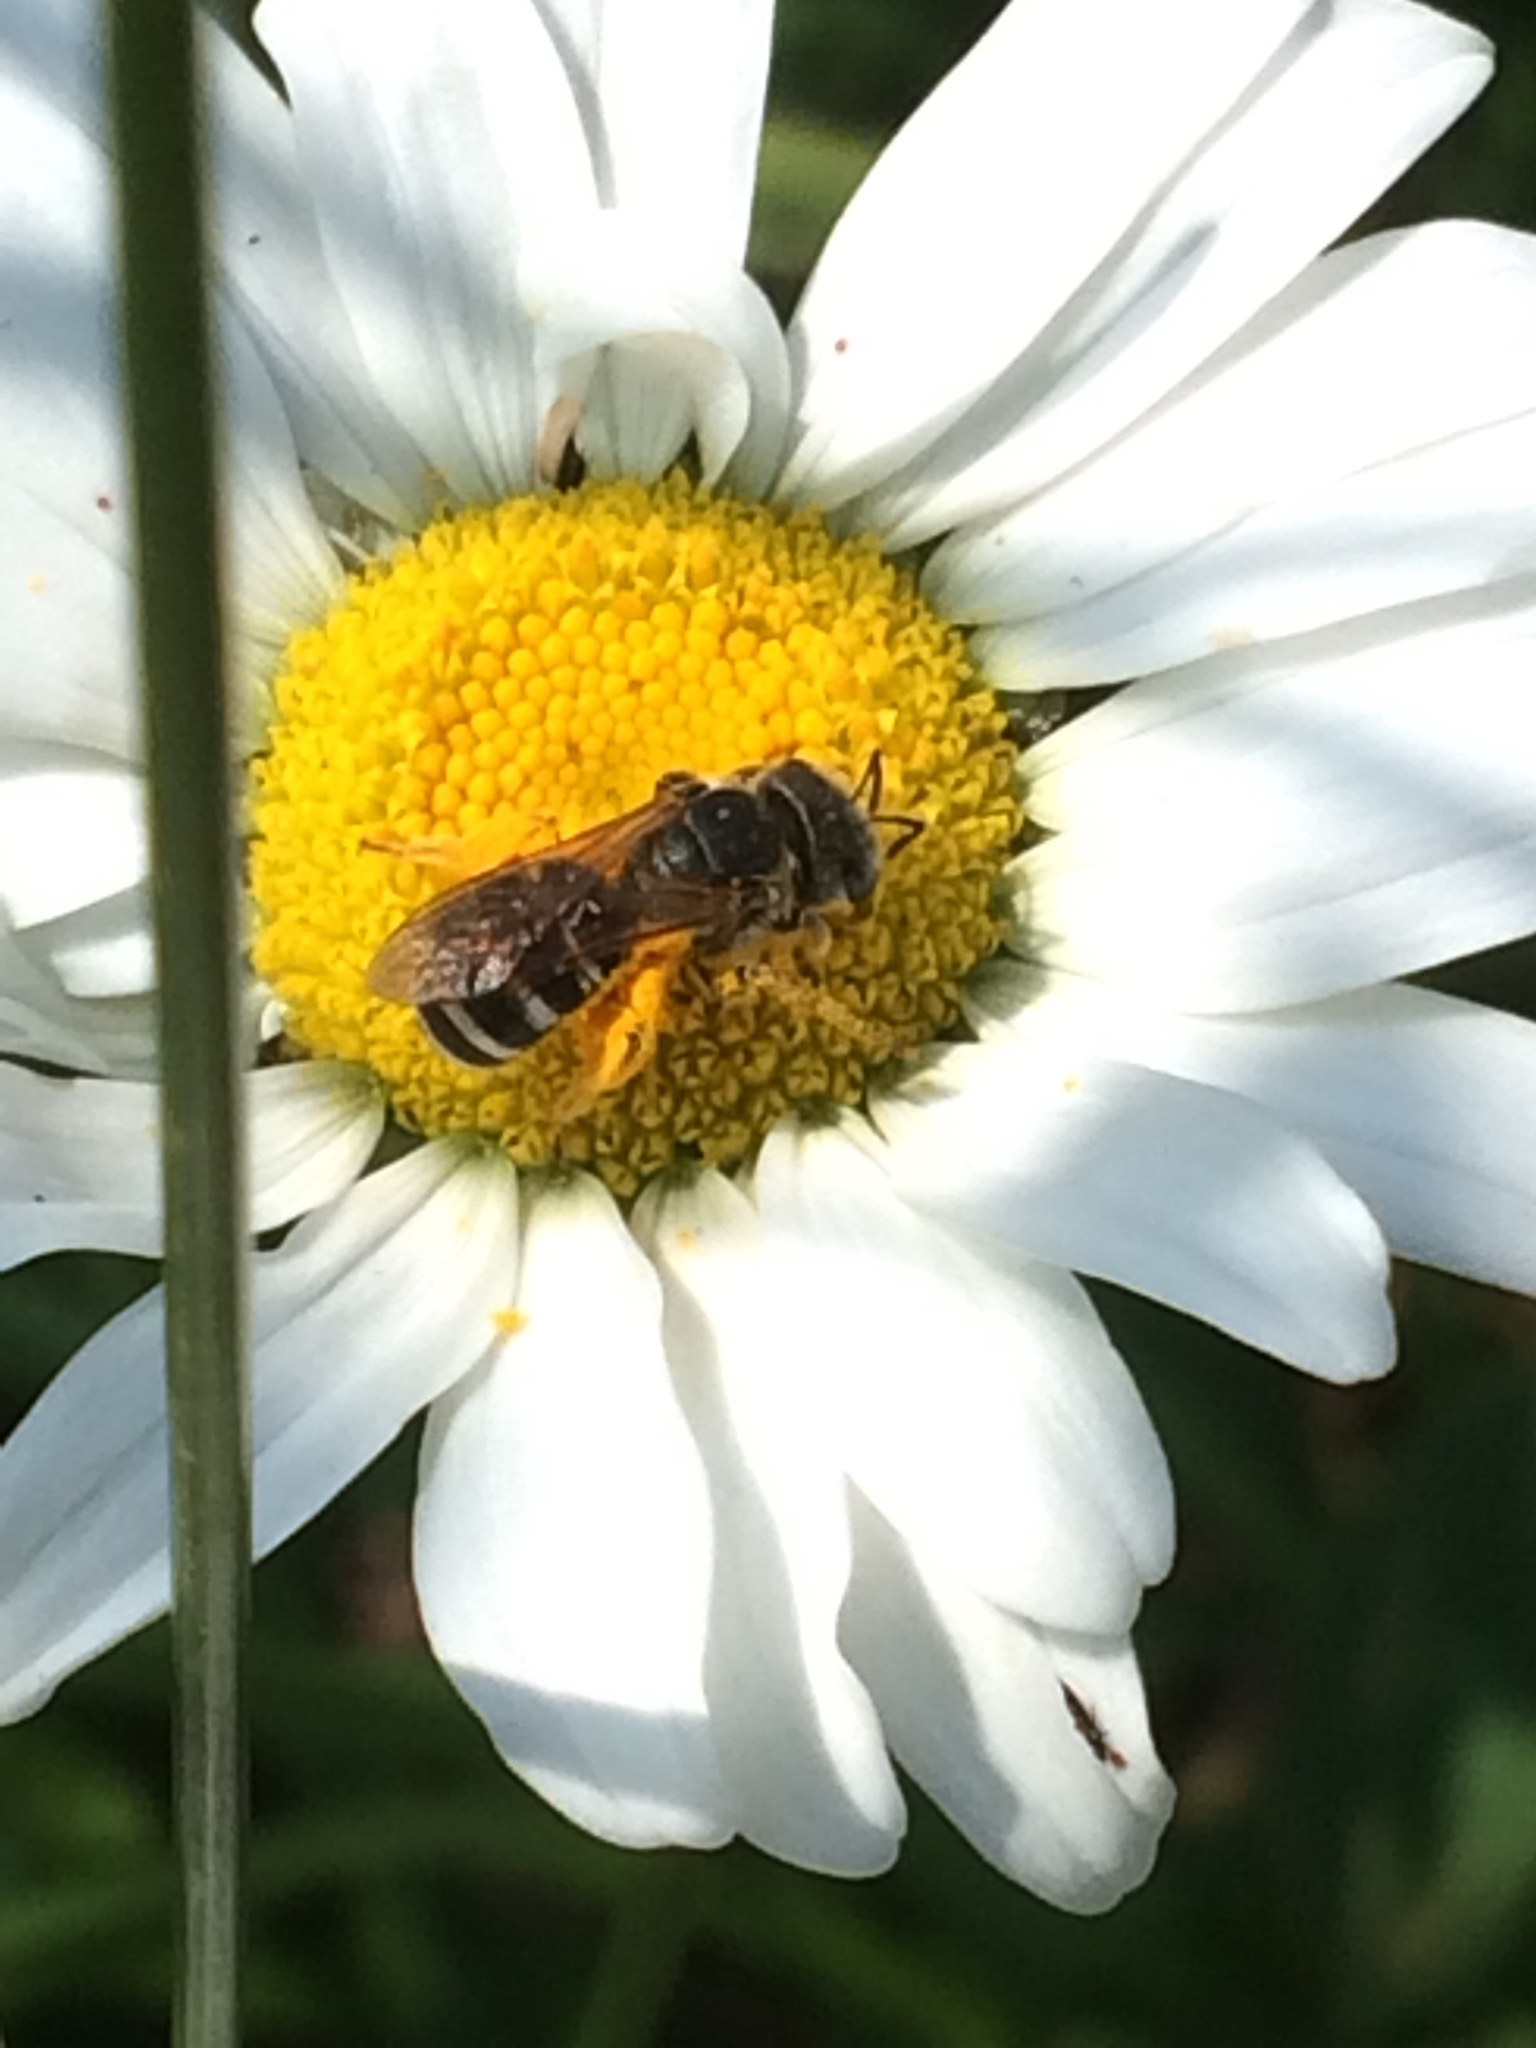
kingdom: Animalia
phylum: Arthropoda
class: Insecta
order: Hymenoptera
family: Halictidae
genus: Halictus
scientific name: Halictus ligatus
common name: Ligated furrow bee
